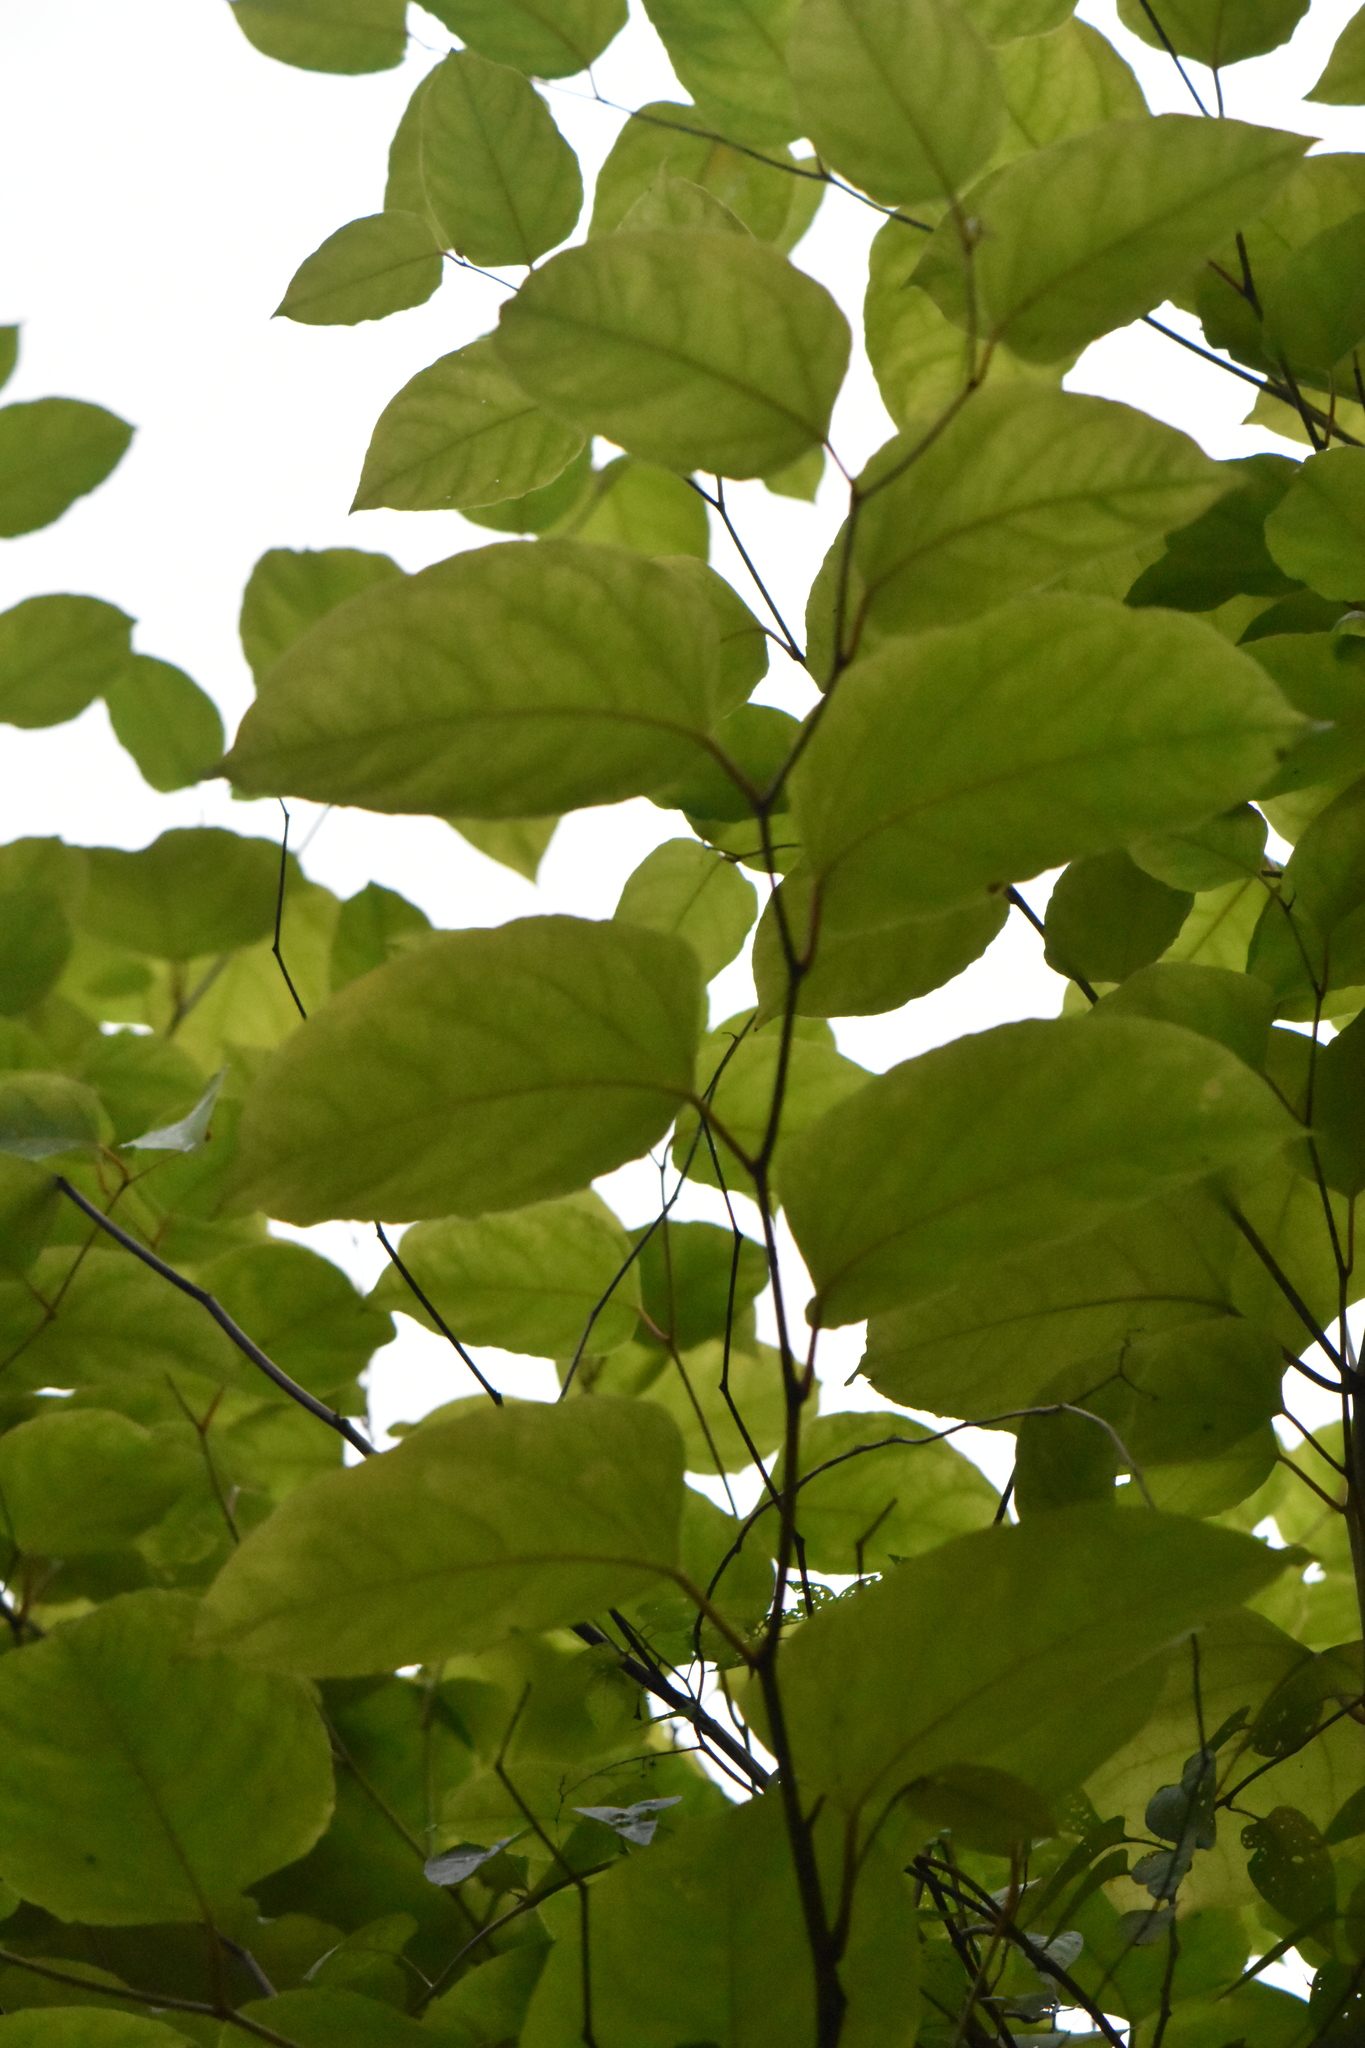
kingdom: Plantae
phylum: Tracheophyta
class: Magnoliopsida
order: Caryophyllales
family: Polygonaceae
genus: Reynoutria
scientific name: Reynoutria bohemica
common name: Bohemian knotweed
